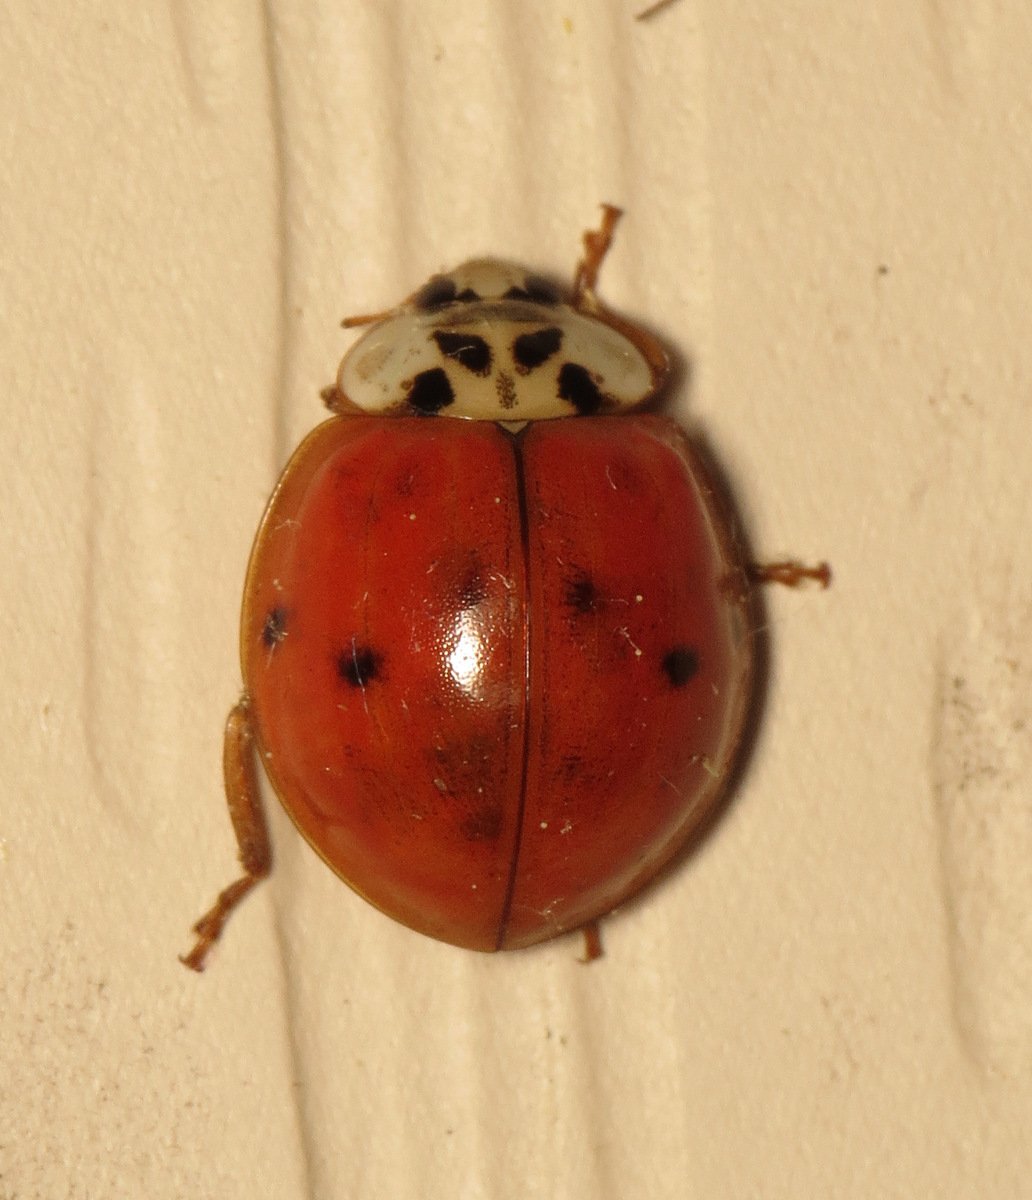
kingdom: Animalia
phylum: Arthropoda
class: Insecta
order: Coleoptera
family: Coccinellidae
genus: Harmonia
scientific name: Harmonia axyridis
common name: Harlequin ladybird
